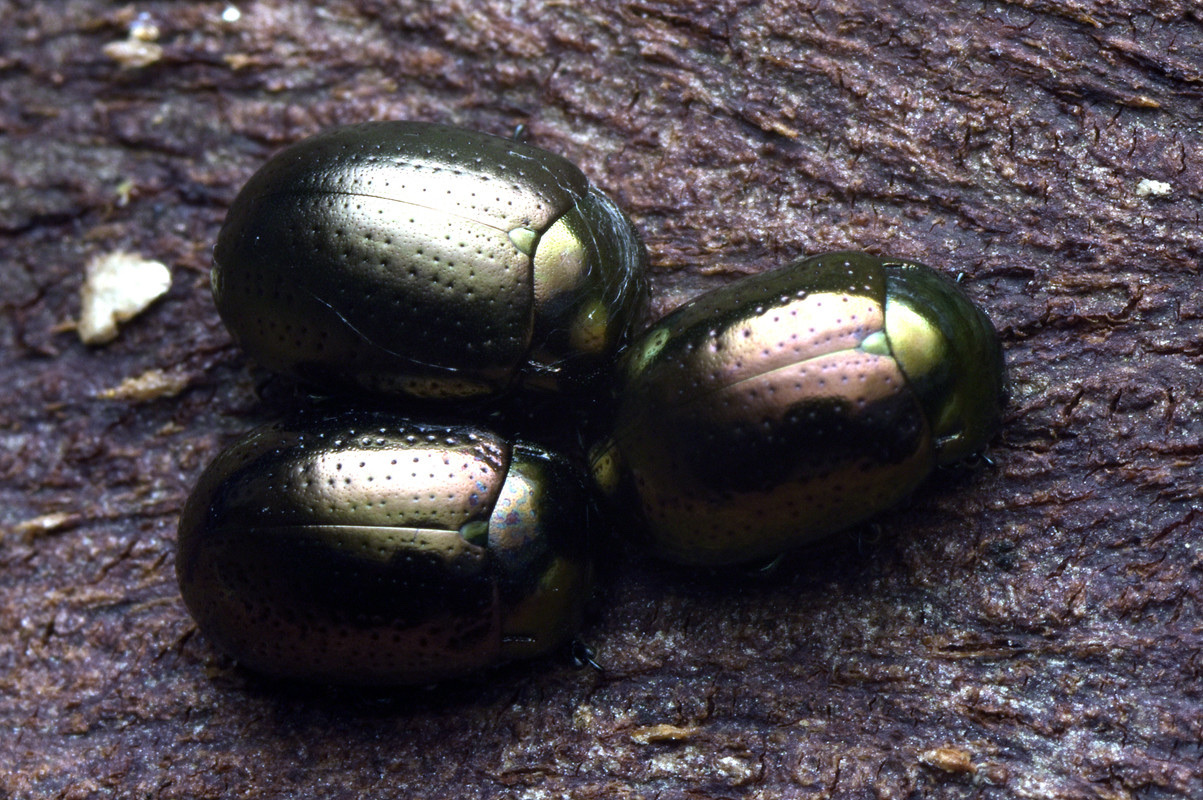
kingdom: Animalia
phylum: Arthropoda
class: Insecta
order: Coleoptera
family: Chrysomelidae
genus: Chrysolina
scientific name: Chrysolina hyperici
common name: St. johnswort beetle
